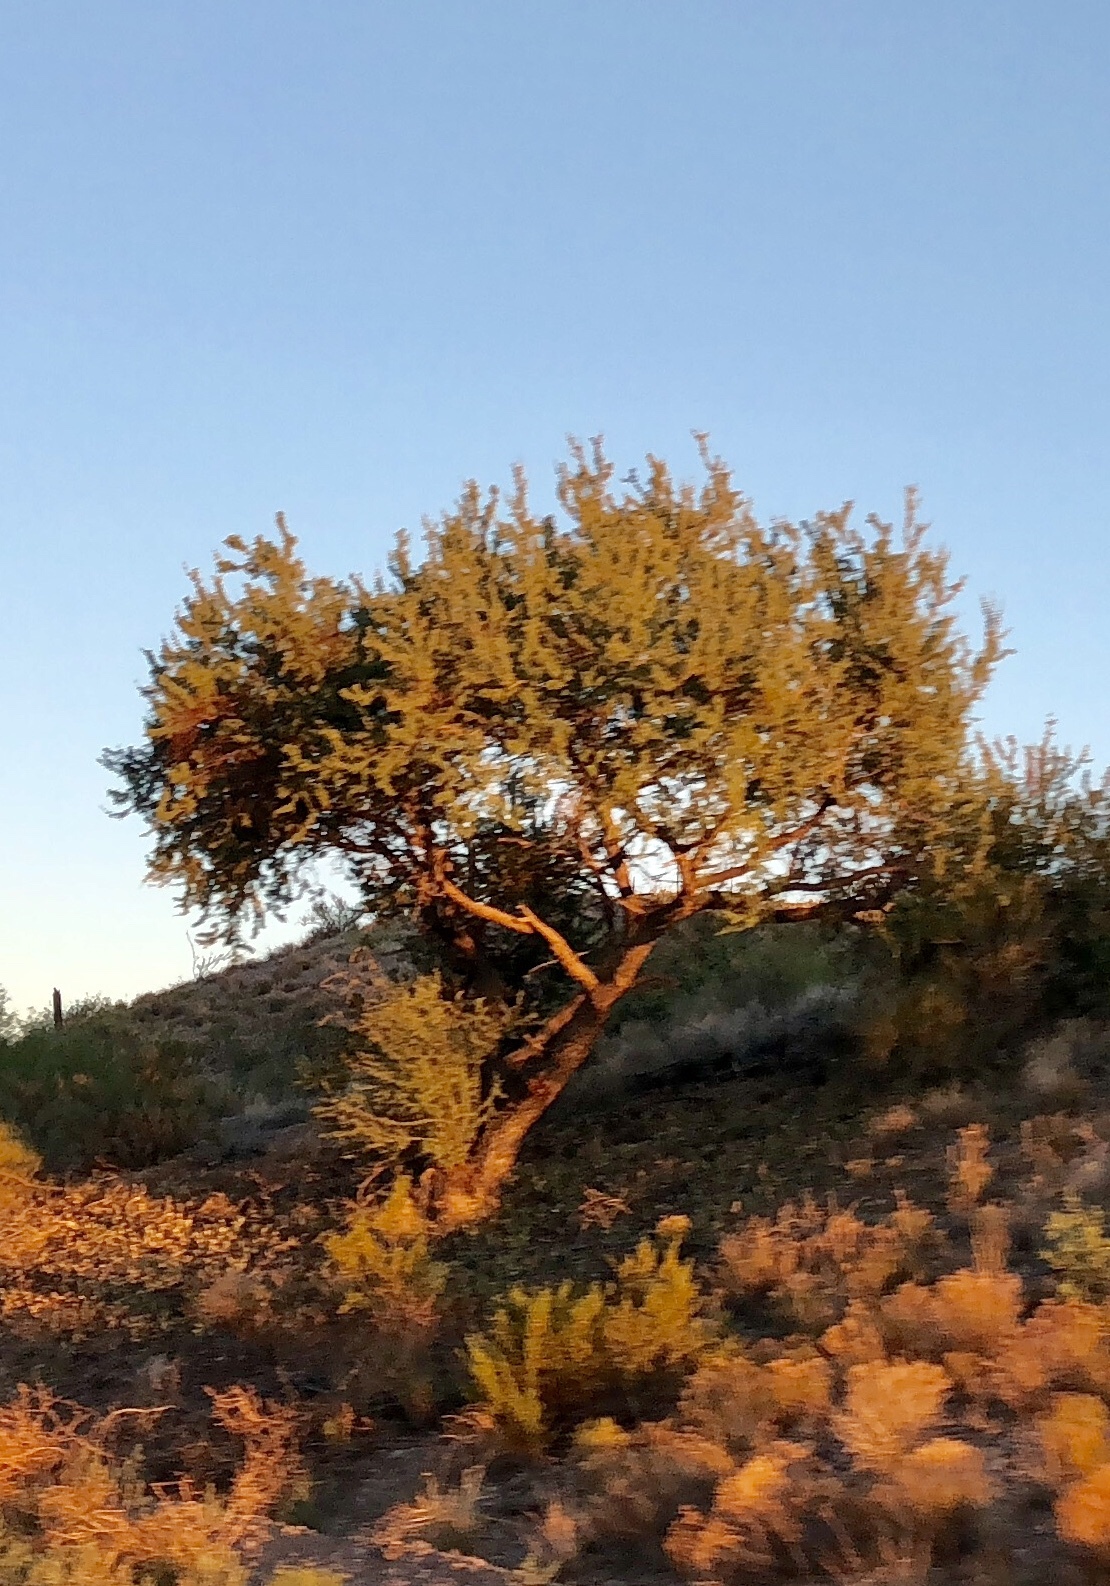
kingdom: Plantae
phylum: Tracheophyta
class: Magnoliopsida
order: Fabales
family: Fabaceae
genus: Senegalia
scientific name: Senegalia greggii
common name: Texas-mimosa
